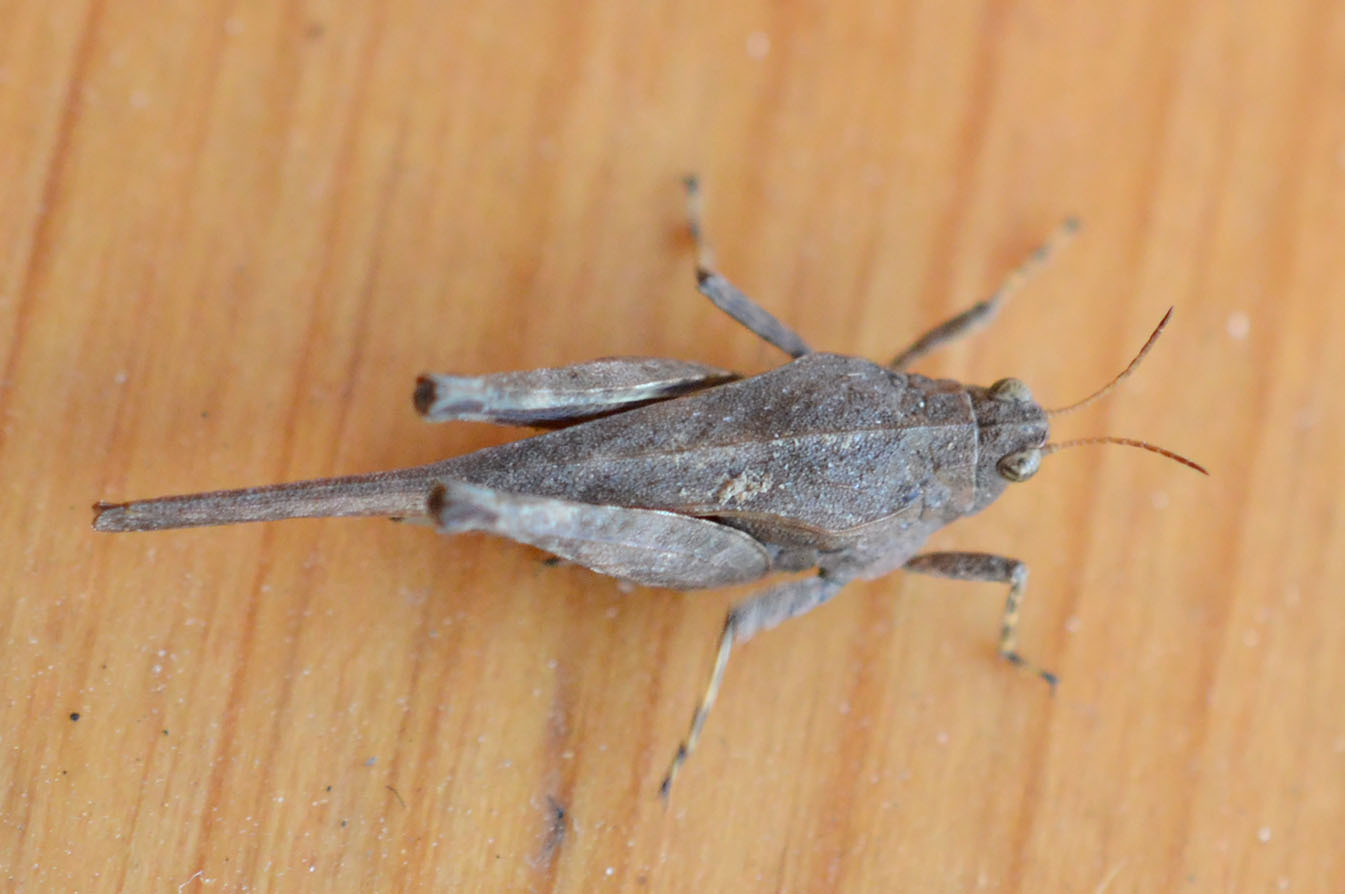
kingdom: Animalia
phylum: Arthropoda
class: Insecta
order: Orthoptera
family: Tetrigidae
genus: Tetrix
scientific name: Tetrix subulata
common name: Slender ground-hopper
